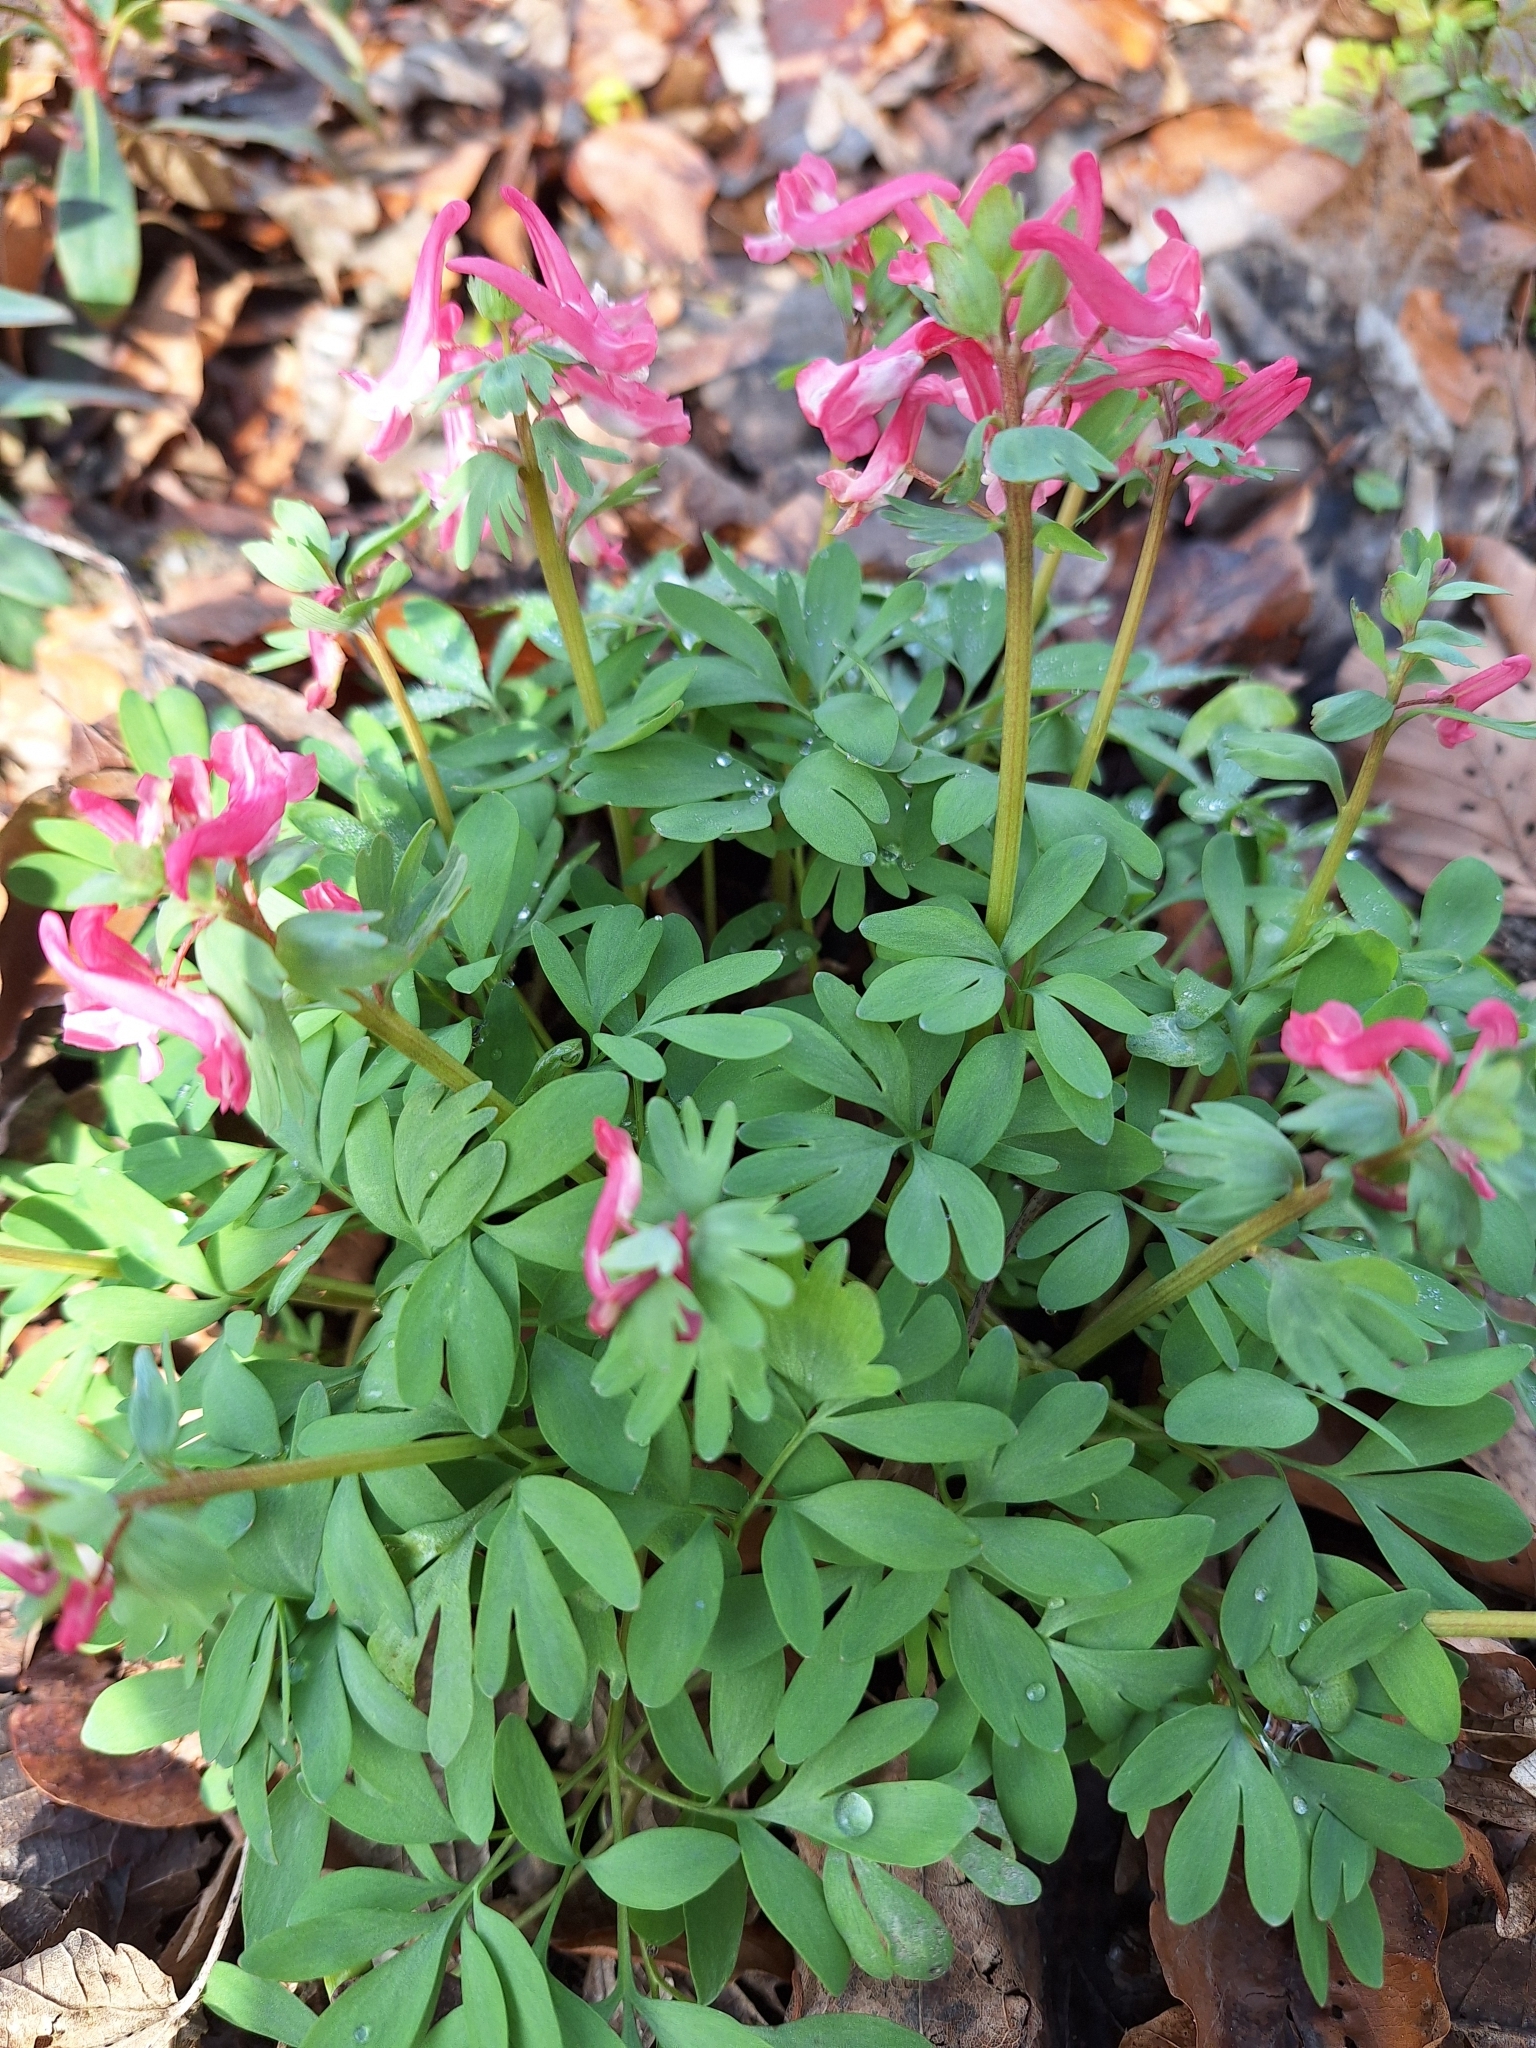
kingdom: Plantae
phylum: Tracheophyta
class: Magnoliopsida
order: Ranunculales
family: Papaveraceae
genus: Corydalis
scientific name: Corydalis solida
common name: Bird-in-a-bush
